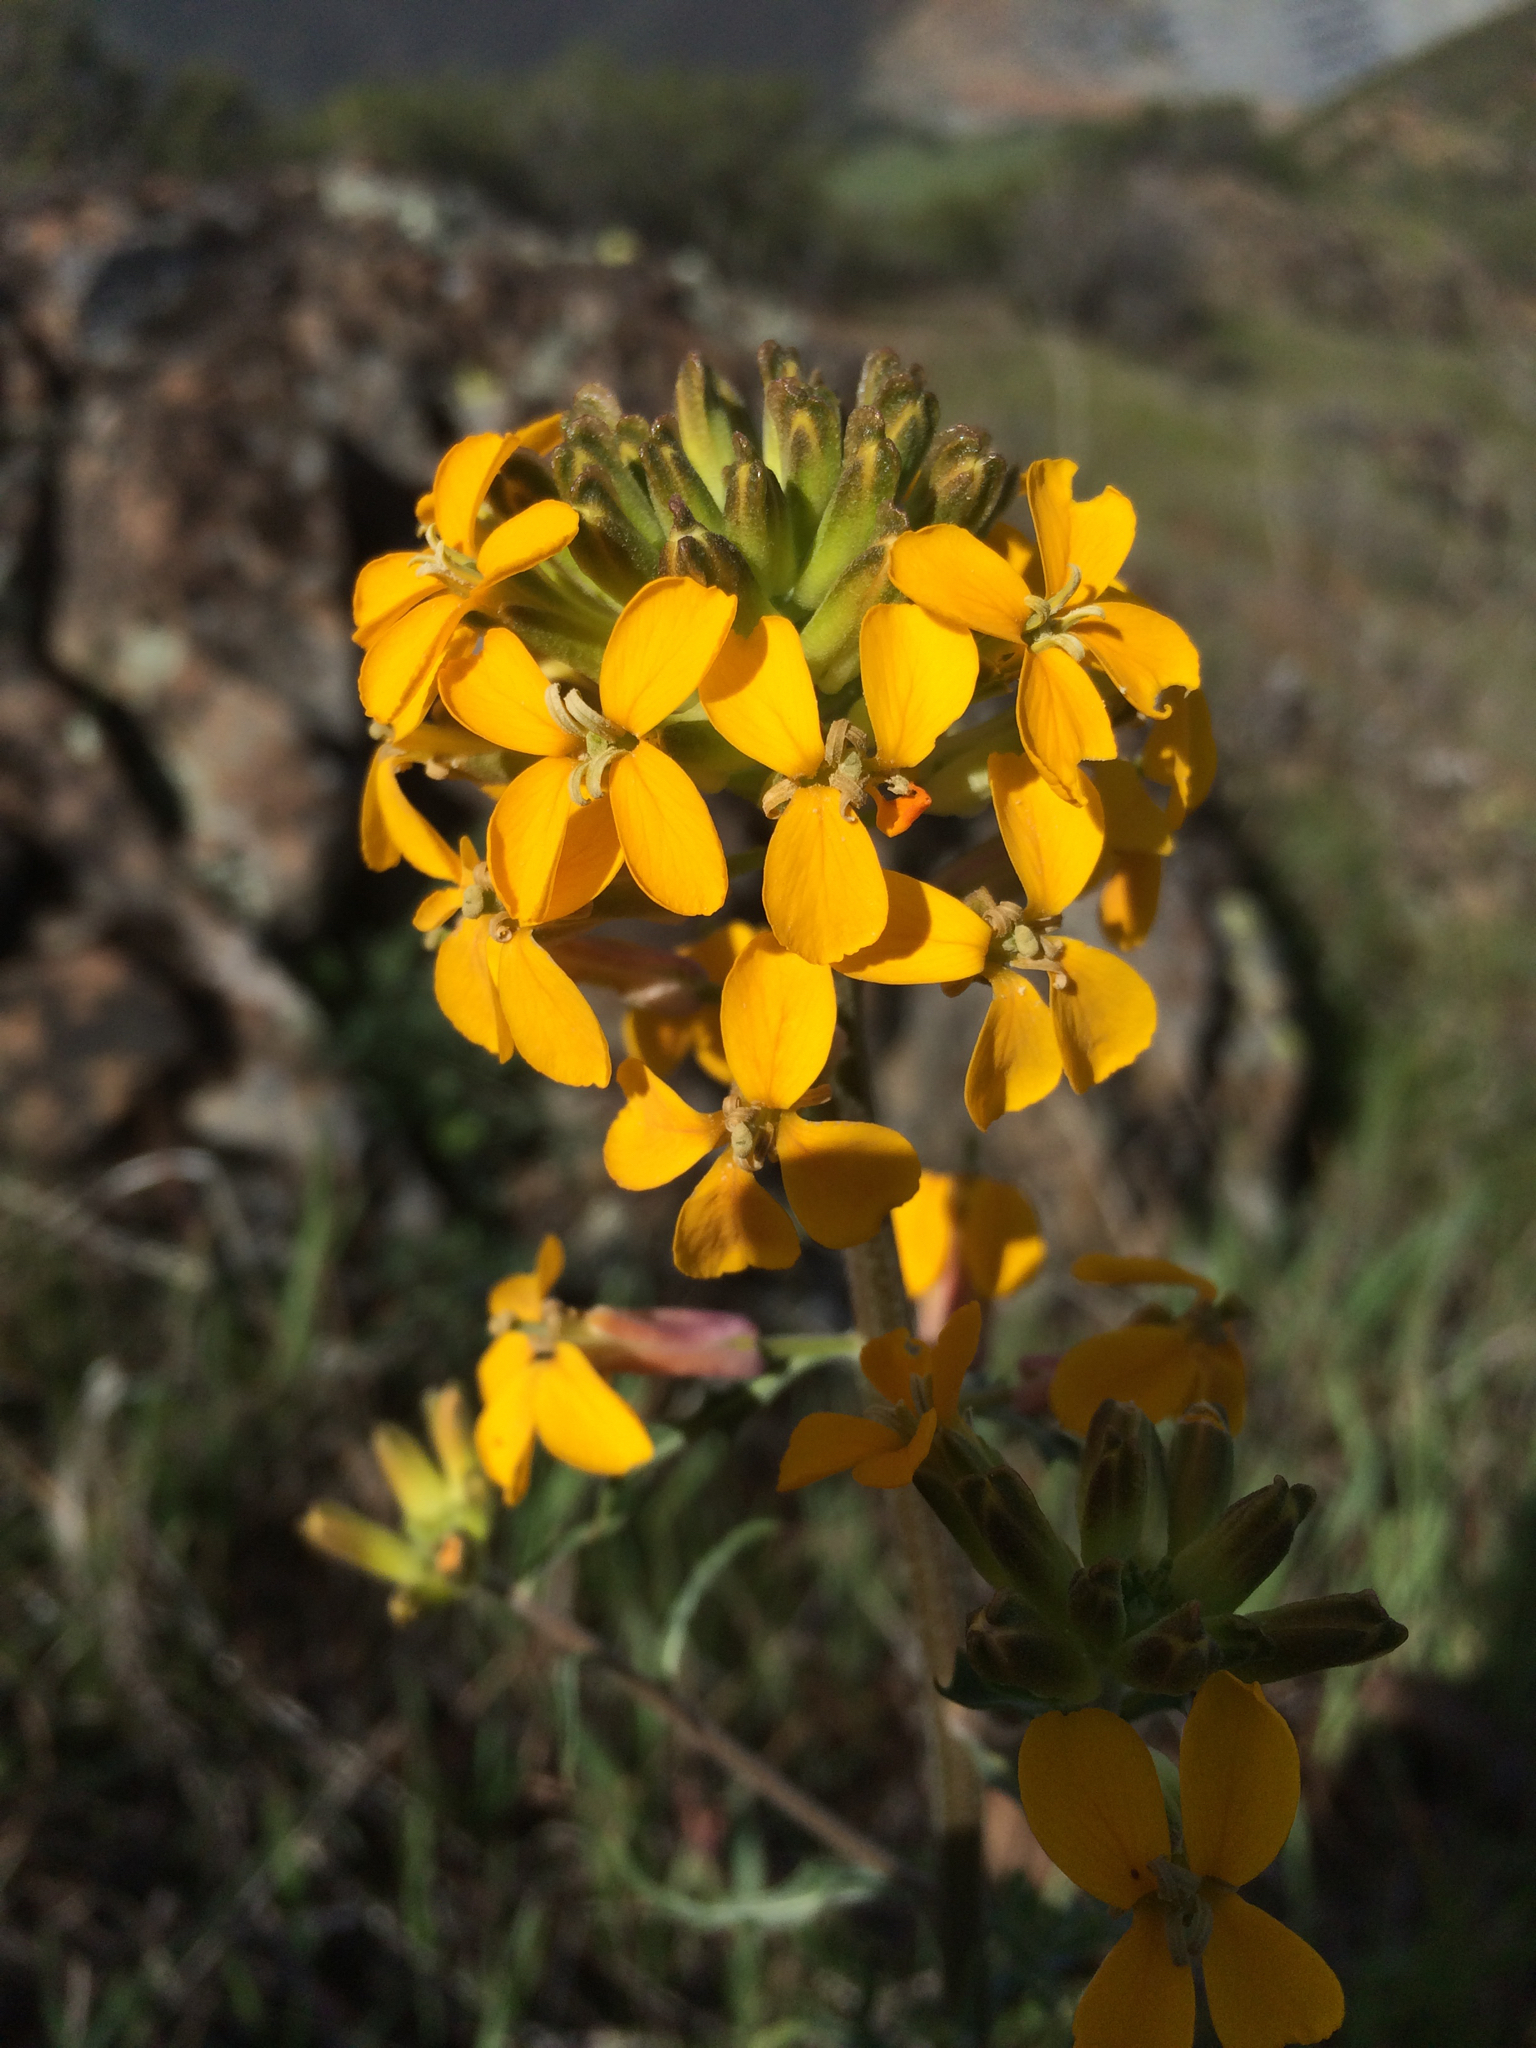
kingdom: Plantae
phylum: Tracheophyta
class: Magnoliopsida
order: Brassicales
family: Brassicaceae
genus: Erysimum
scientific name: Erysimum capitatum
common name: Western wallflower
